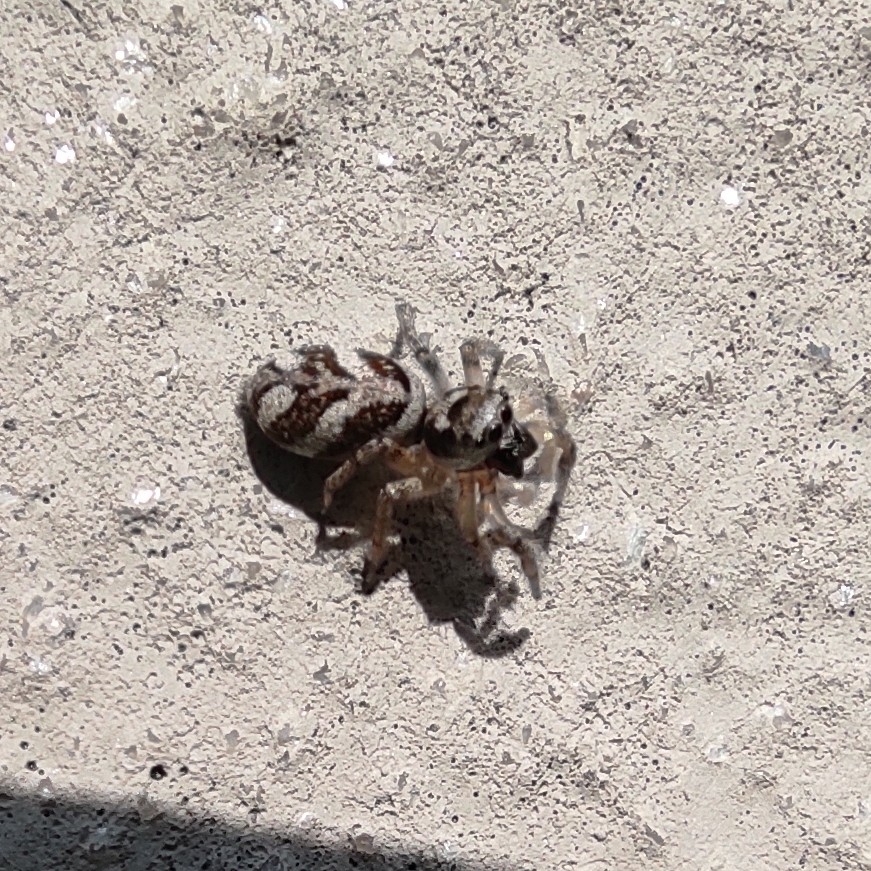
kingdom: Animalia
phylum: Arthropoda
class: Arachnida
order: Araneae
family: Salticidae
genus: Salticus
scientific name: Salticus scenicus
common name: Zebra jumper
